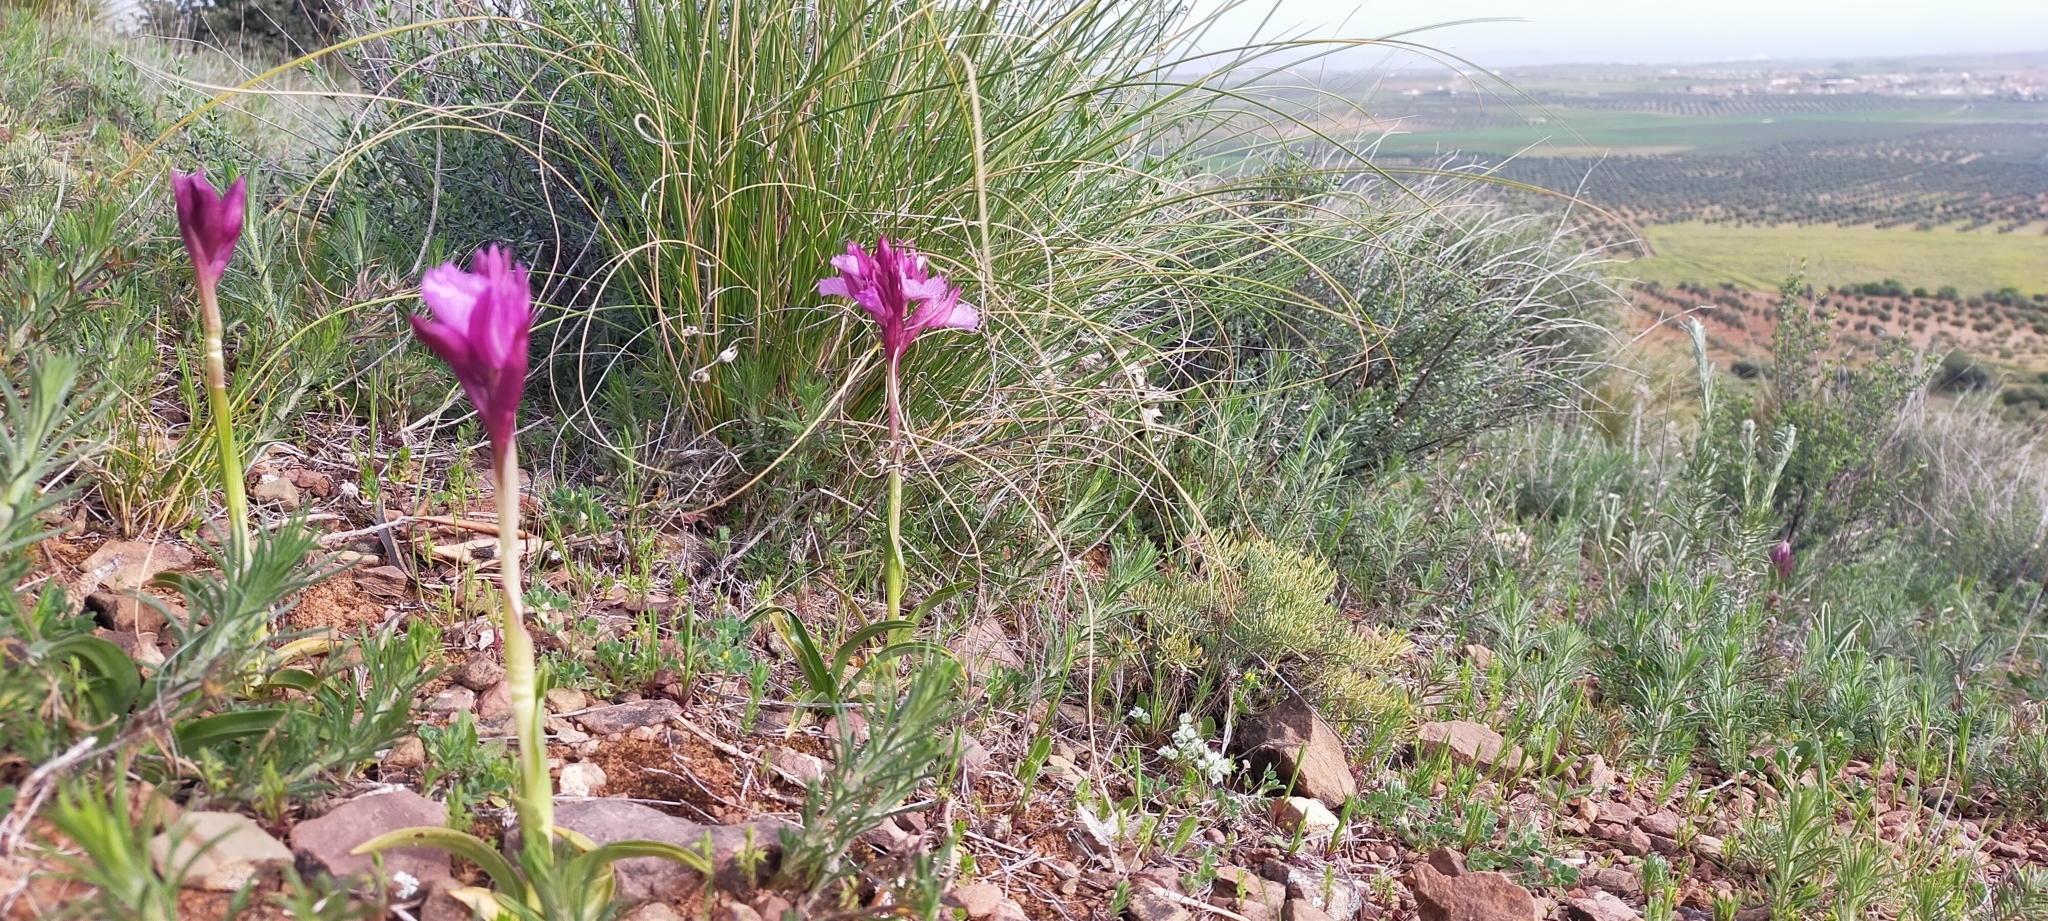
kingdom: Plantae
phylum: Tracheophyta
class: Liliopsida
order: Asparagales
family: Orchidaceae
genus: Anacamptis
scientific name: Anacamptis papilionacea
